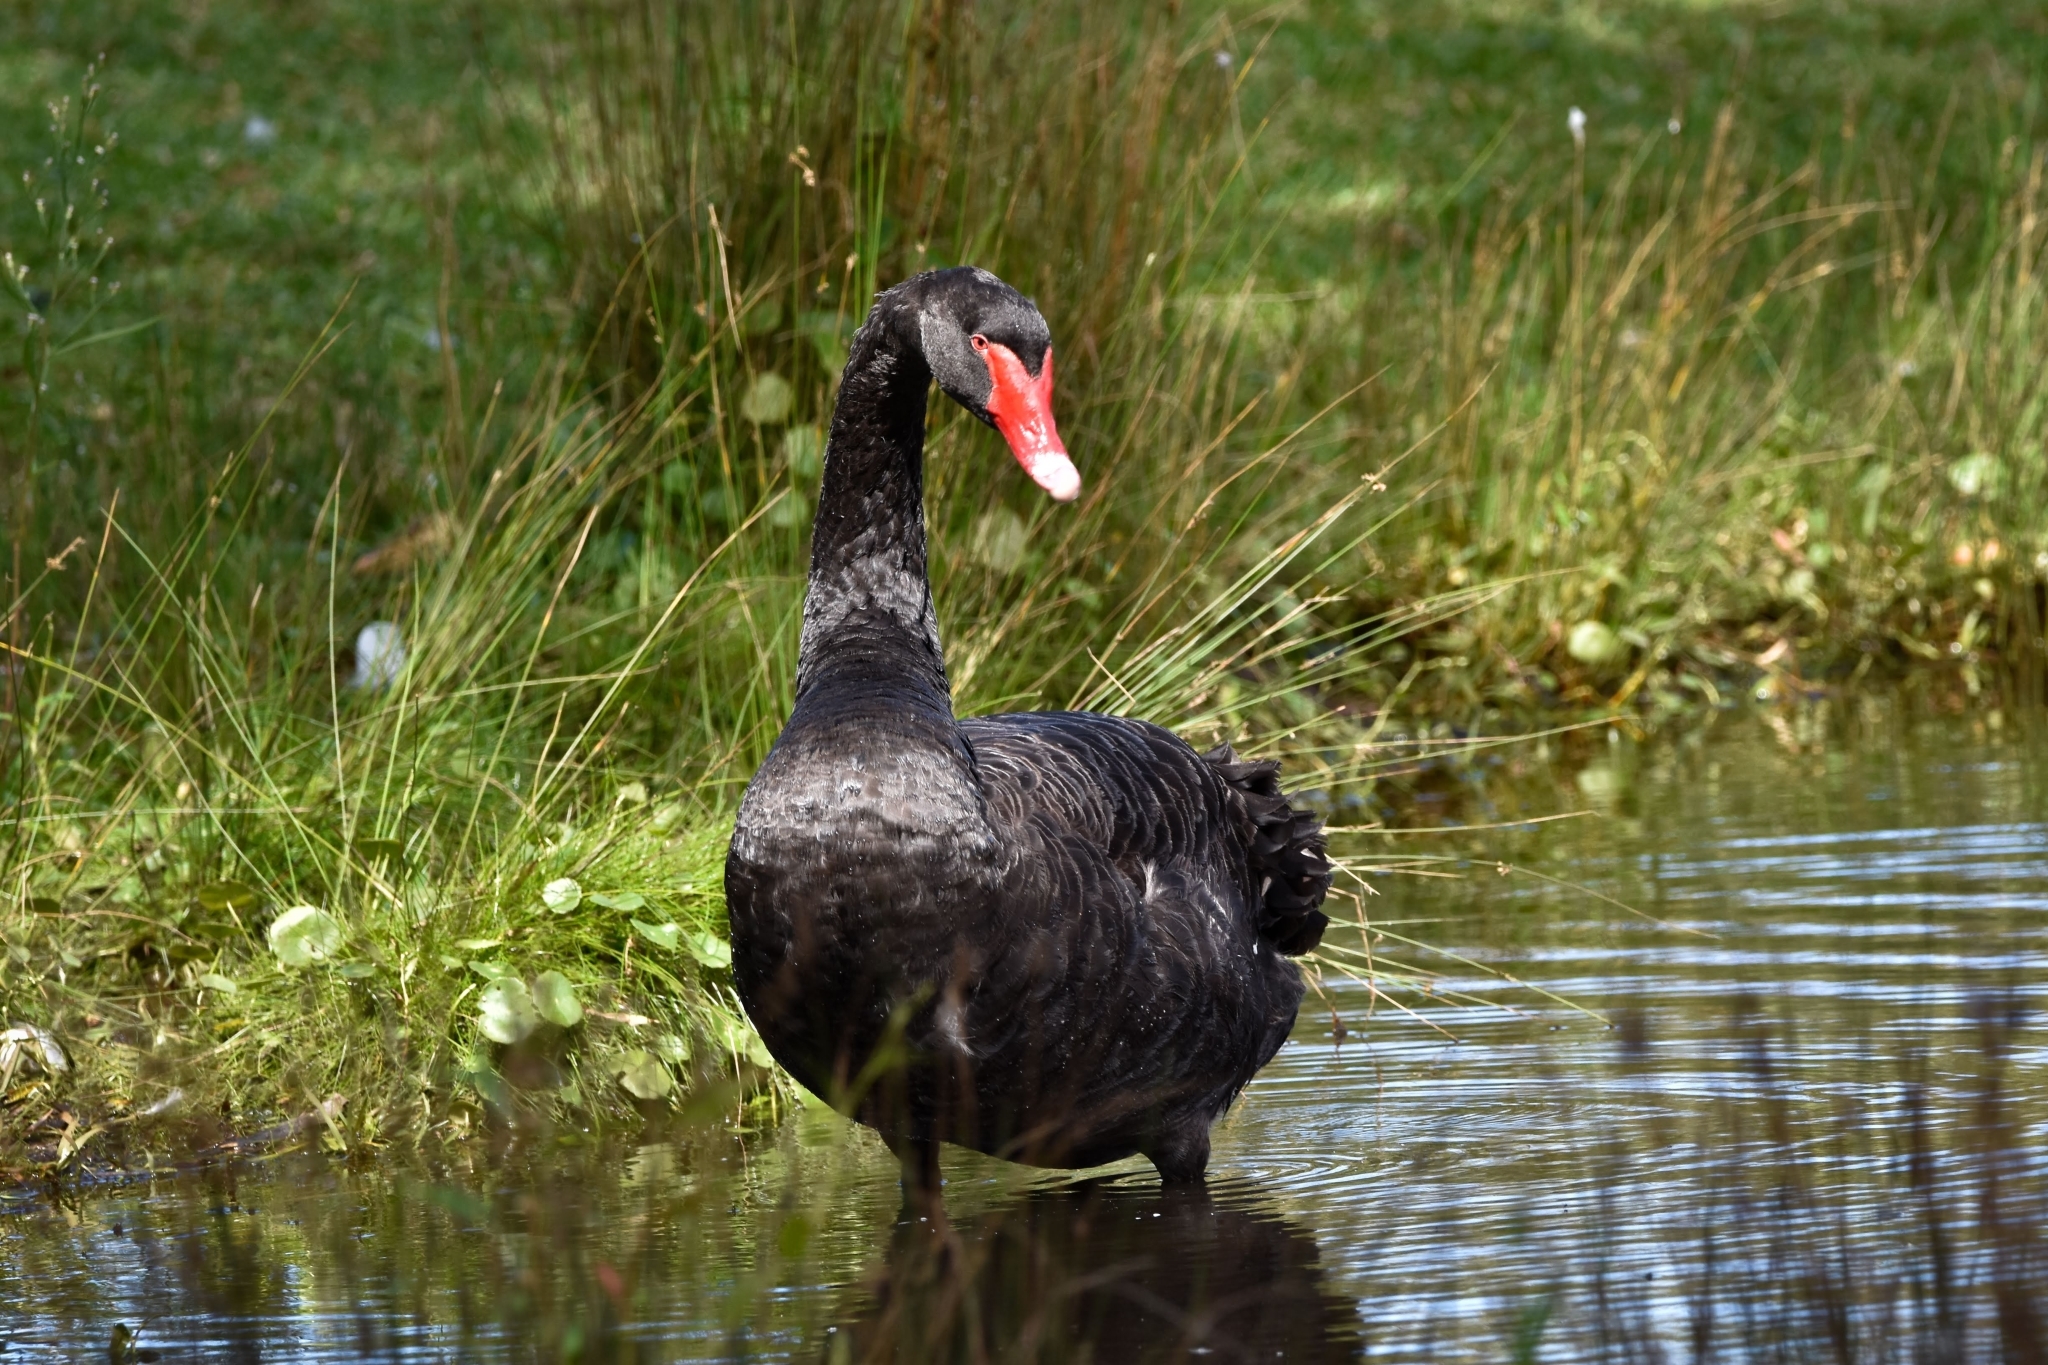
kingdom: Animalia
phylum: Chordata
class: Aves
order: Anseriformes
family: Anatidae
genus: Cygnus
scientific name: Cygnus atratus
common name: Black swan
